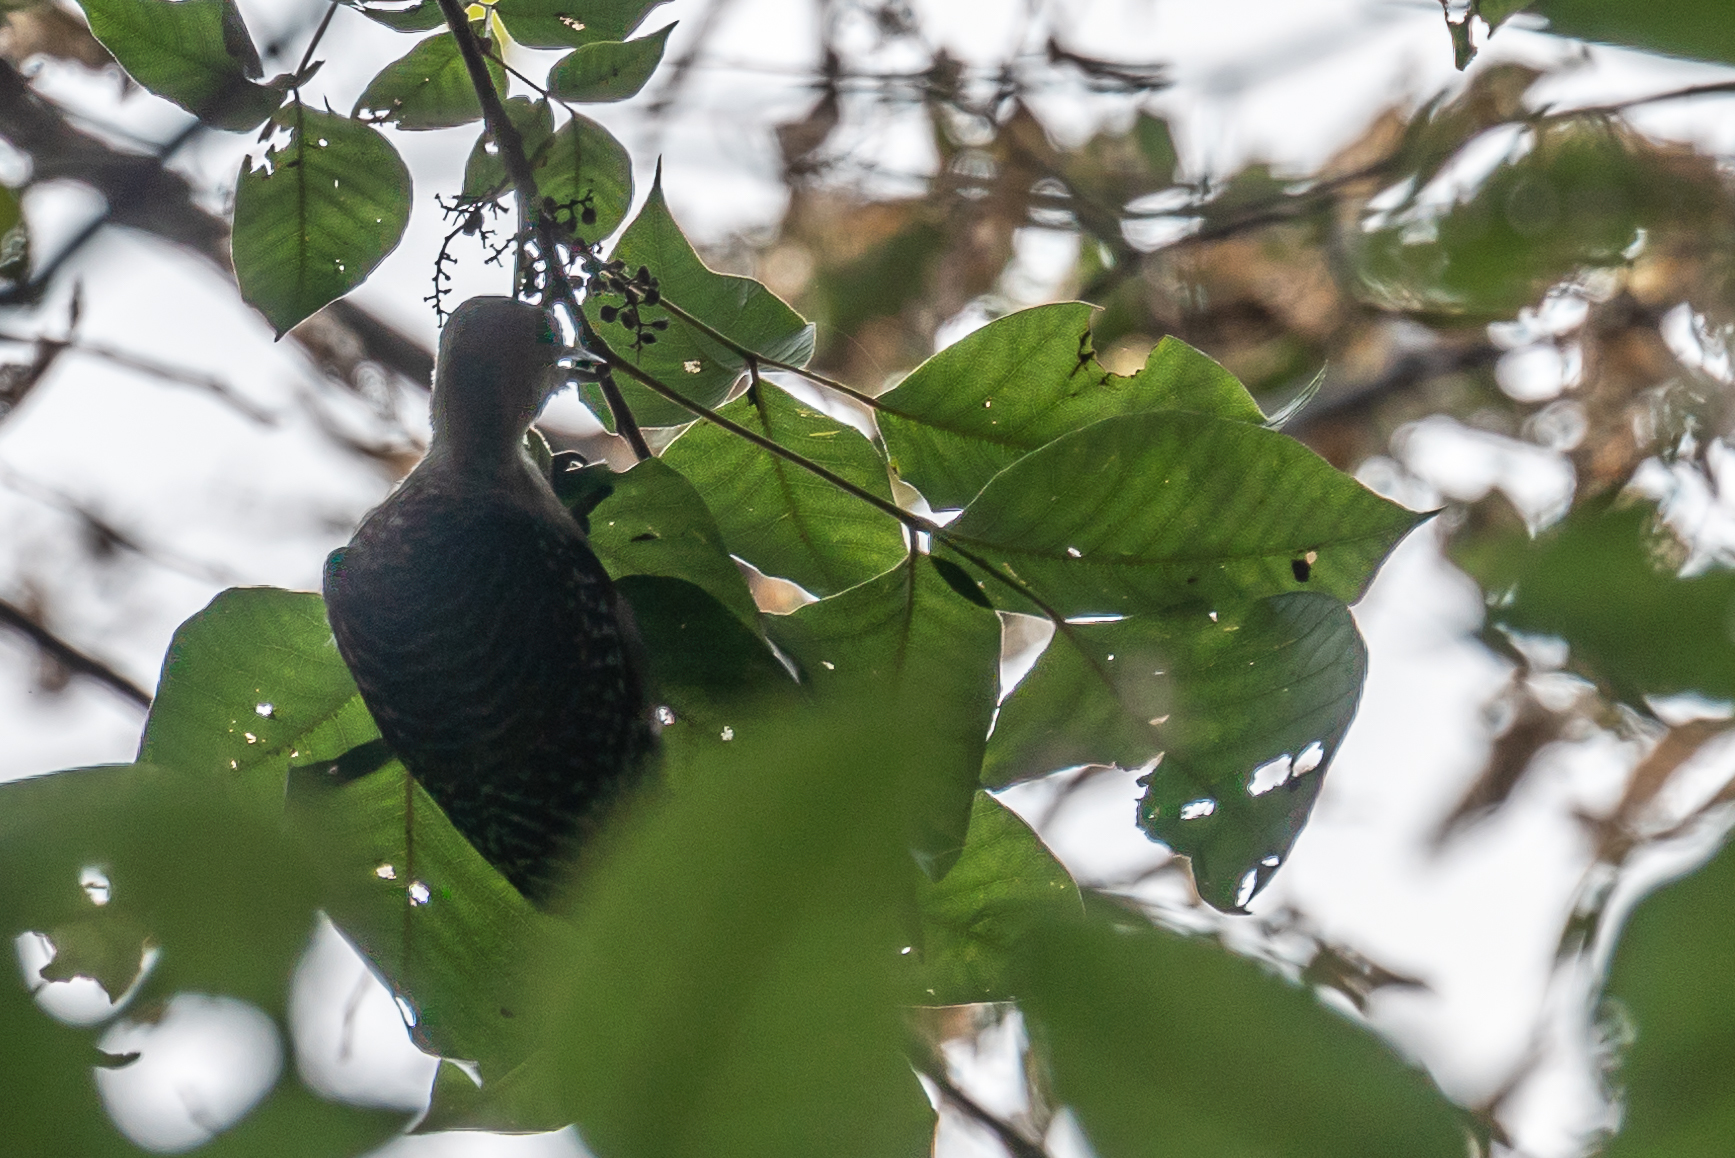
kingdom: Animalia
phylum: Chordata
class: Aves
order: Piciformes
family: Picidae
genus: Melanerpes
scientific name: Melanerpes carolinus
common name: Red-bellied woodpecker
